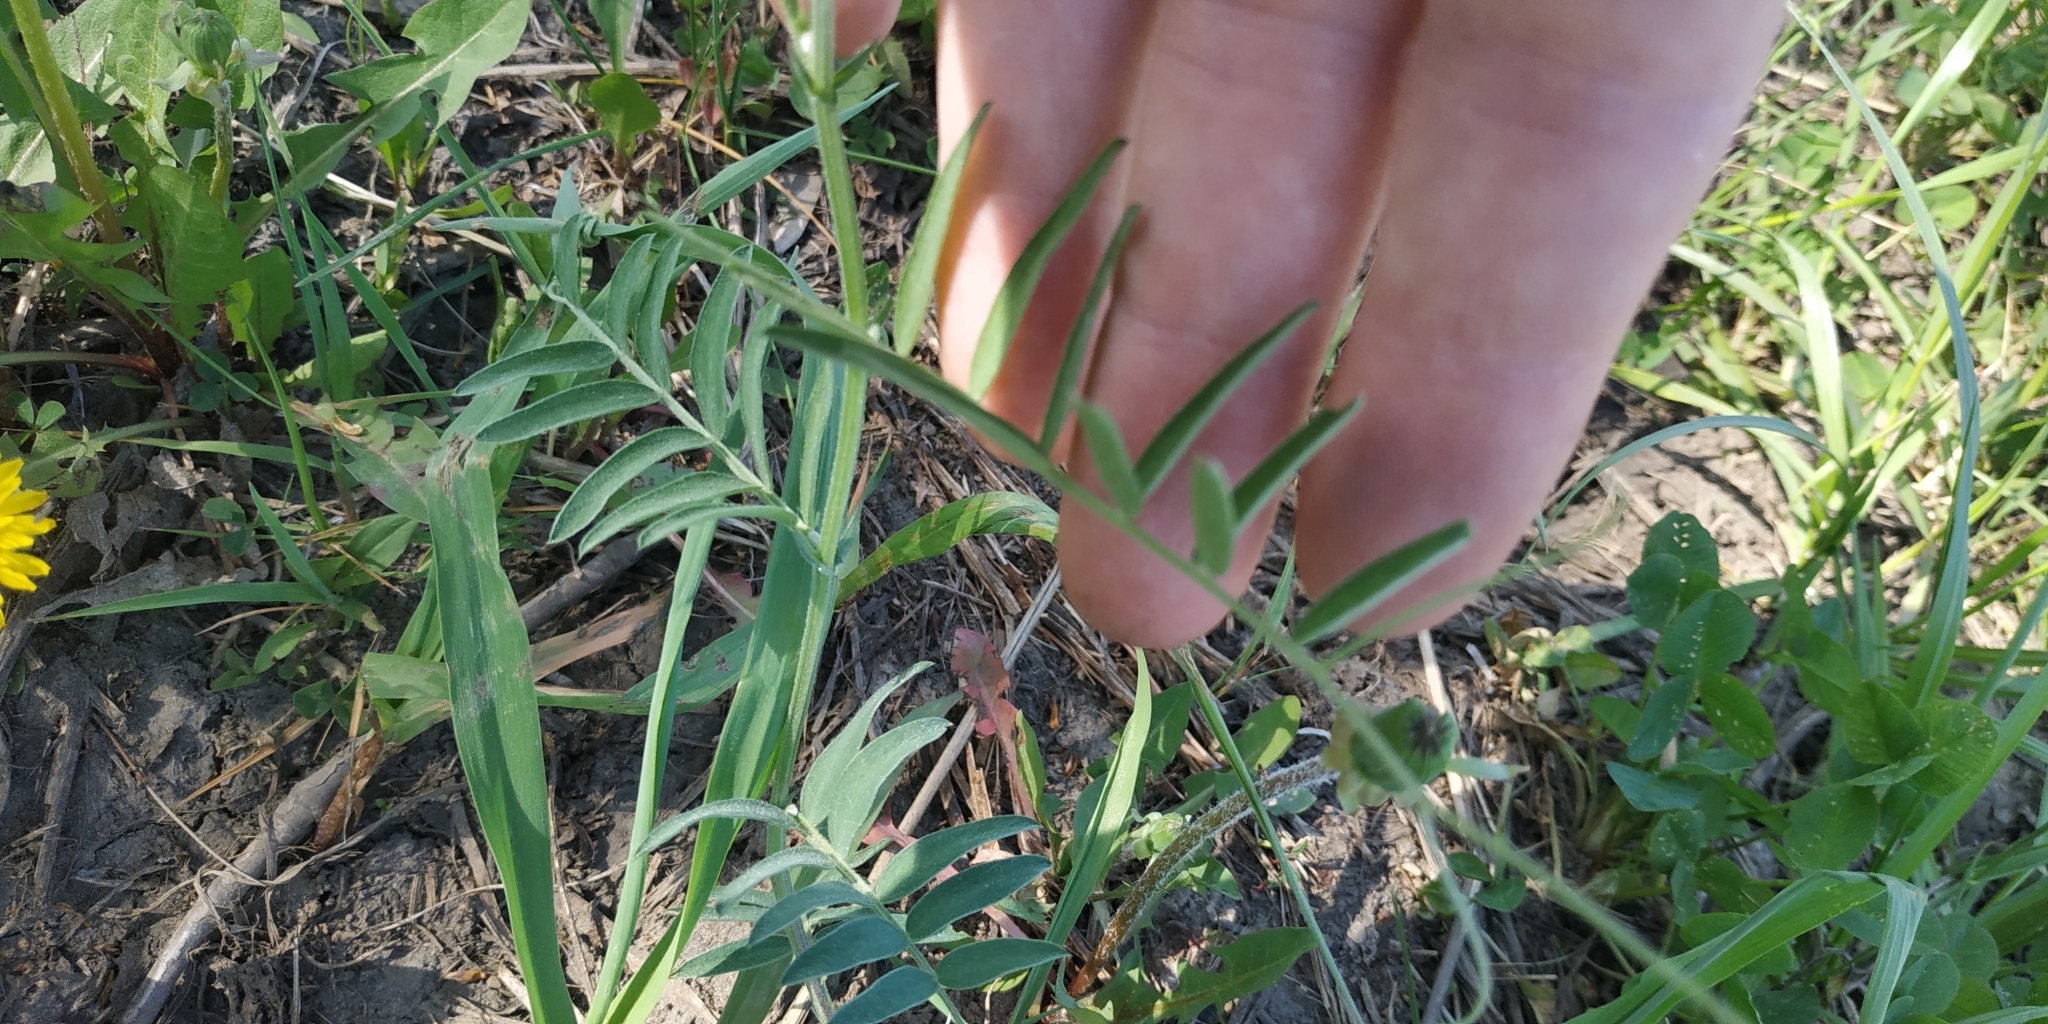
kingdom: Plantae
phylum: Tracheophyta
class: Magnoliopsida
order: Fabales
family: Fabaceae
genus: Vicia
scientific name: Vicia tenuifolia
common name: Fine-leaved vetch
